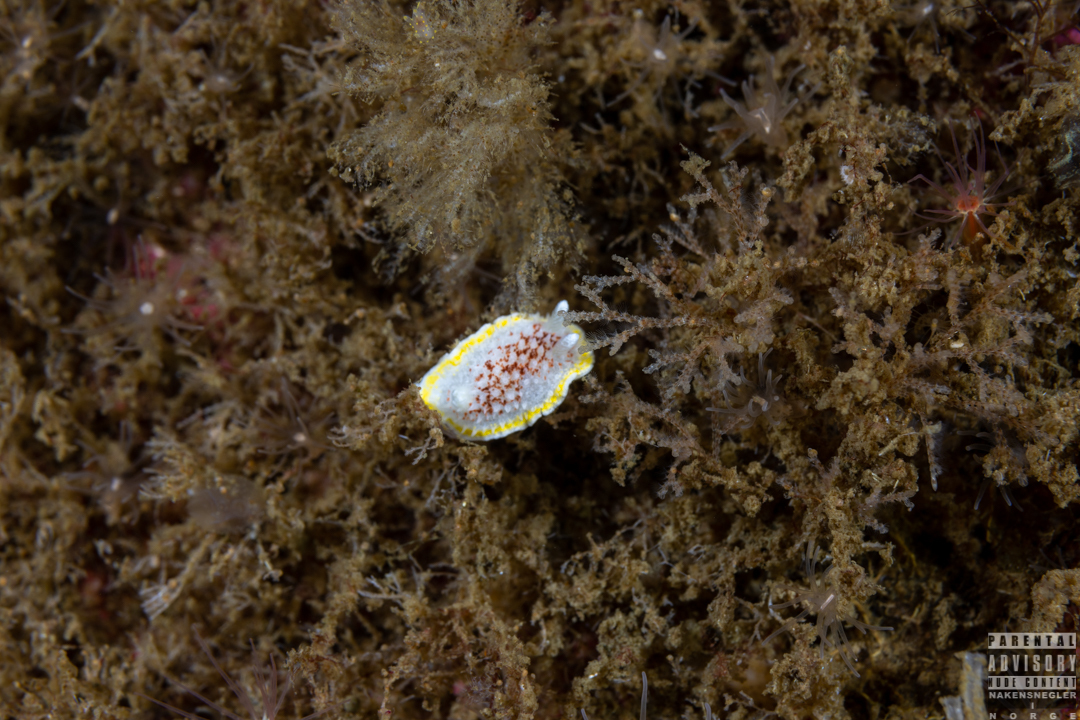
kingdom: Animalia
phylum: Mollusca
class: Gastropoda
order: Nudibranchia
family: Calycidorididae
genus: Diaphorodoris
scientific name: Diaphorodoris luteocincta
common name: Fried egg nudibranch
